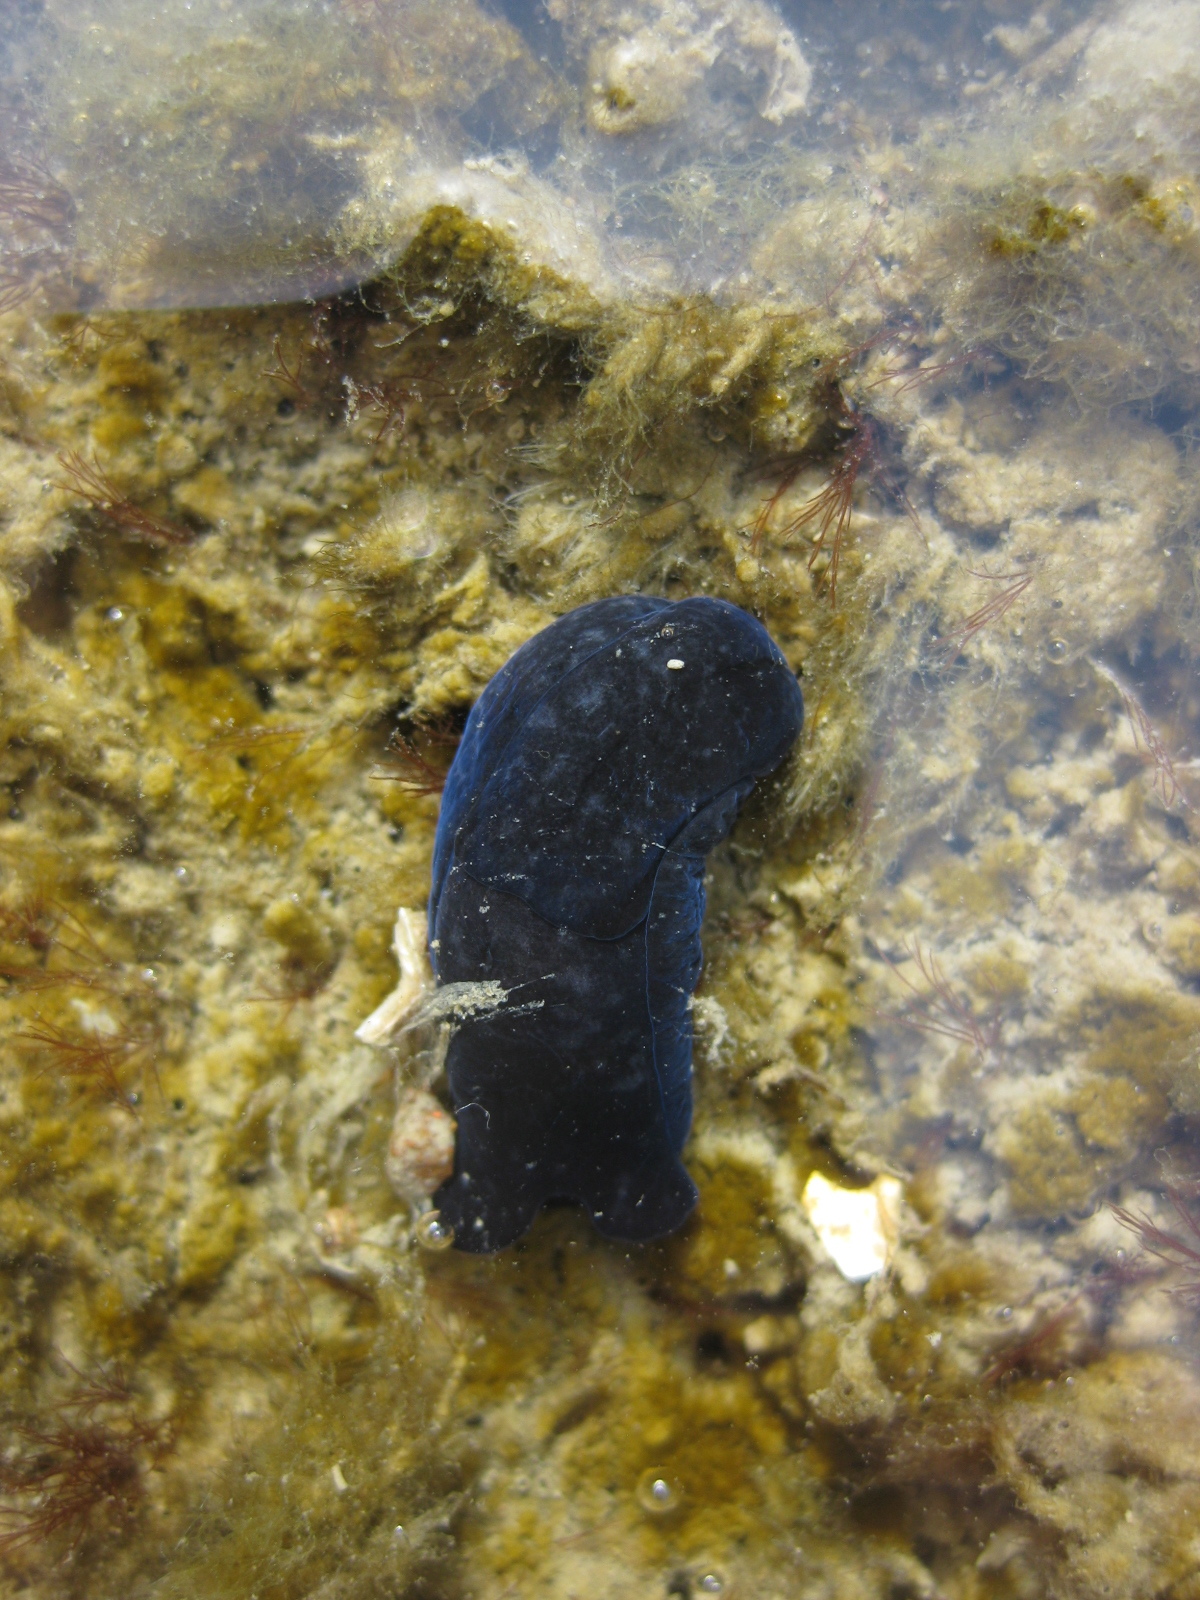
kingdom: Animalia
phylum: Mollusca
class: Gastropoda
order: Cephalaspidea
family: Aglajidae
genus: Melanochlamys
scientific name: Melanochlamys cylindrica
